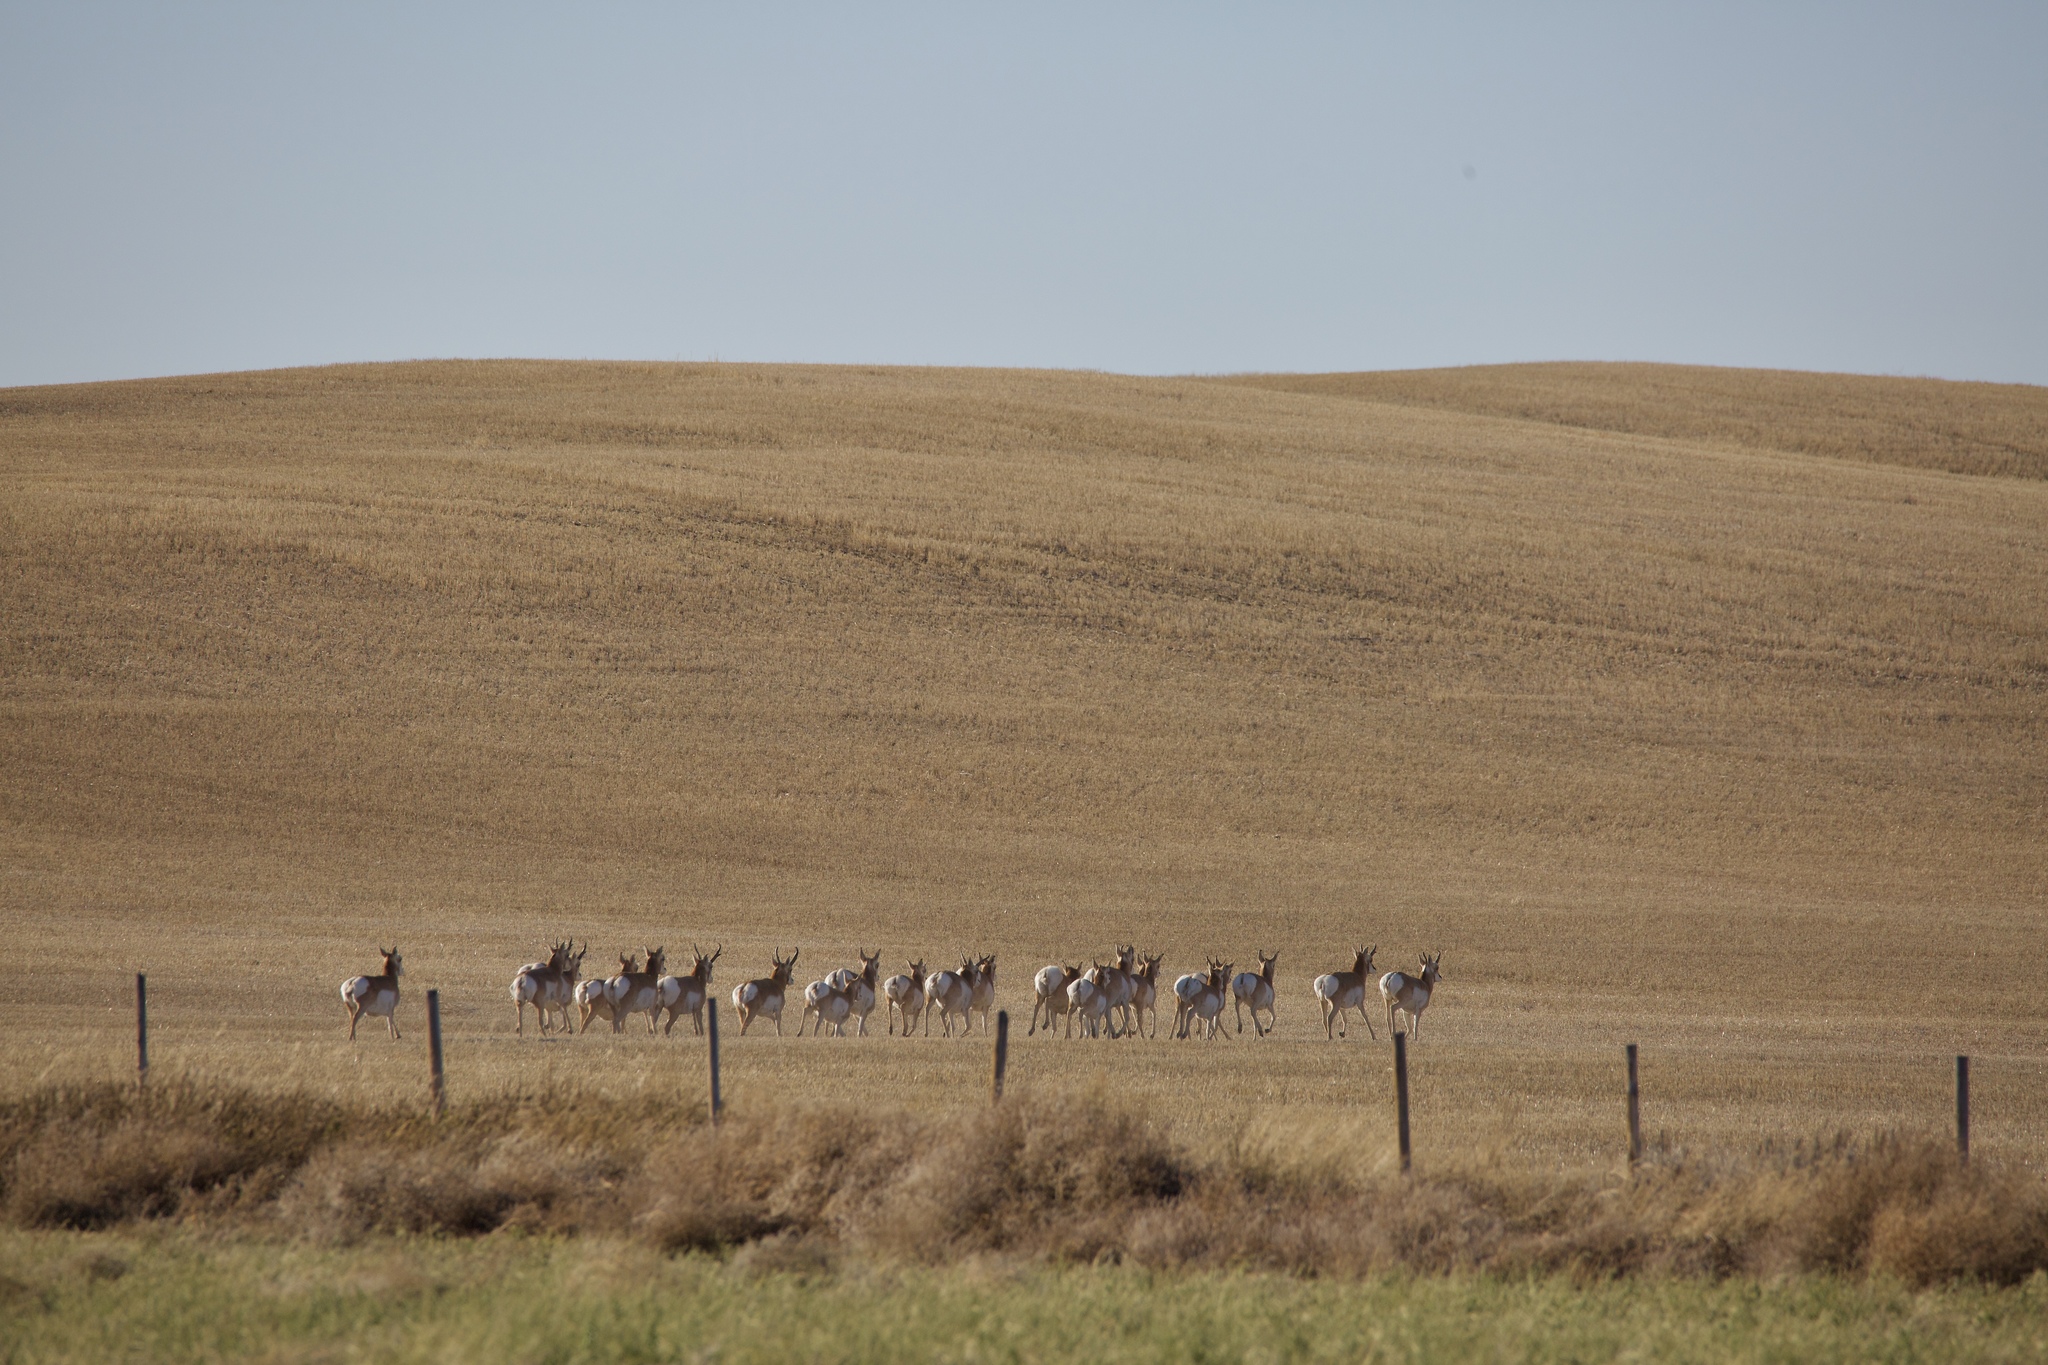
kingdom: Animalia
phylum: Chordata
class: Mammalia
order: Artiodactyla
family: Antilocapridae
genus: Antilocapra
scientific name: Antilocapra americana
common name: Pronghorn
